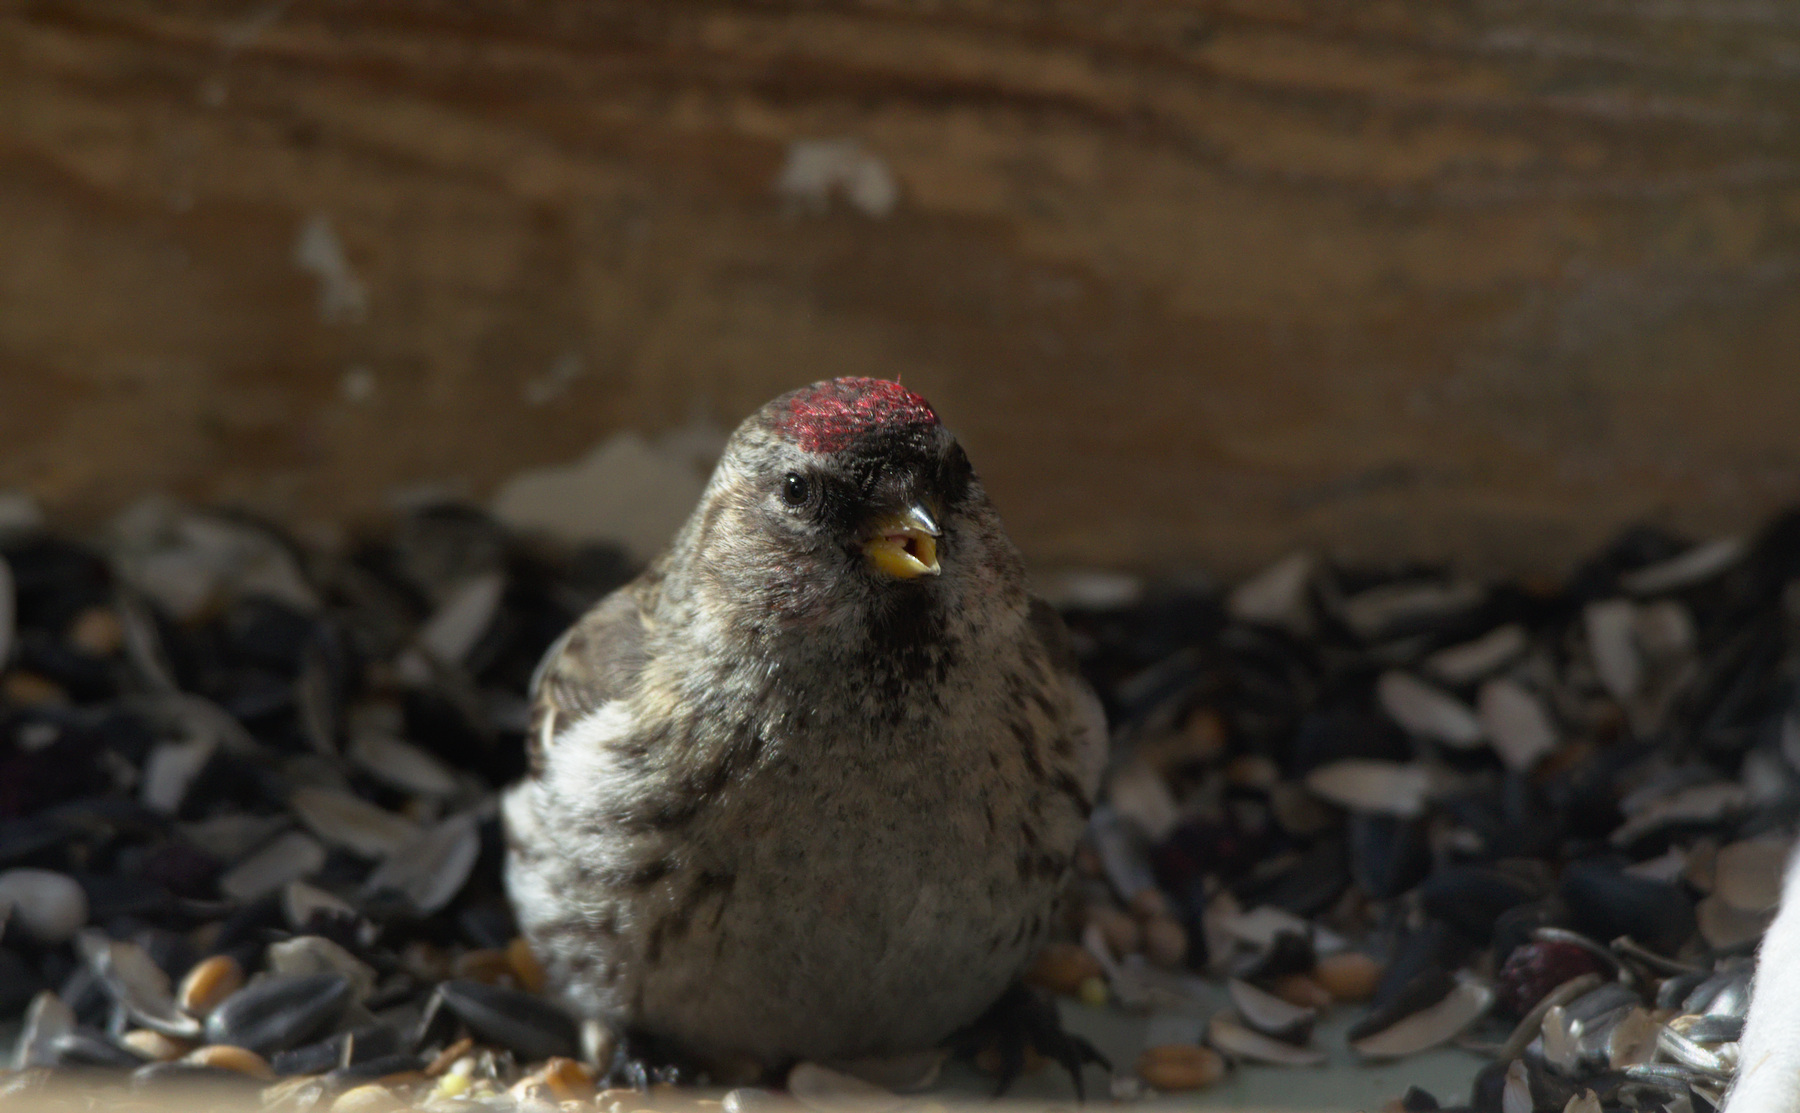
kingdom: Animalia
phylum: Chordata
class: Aves
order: Passeriformes
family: Fringillidae
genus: Acanthis
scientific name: Acanthis flammea
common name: Common redpoll
